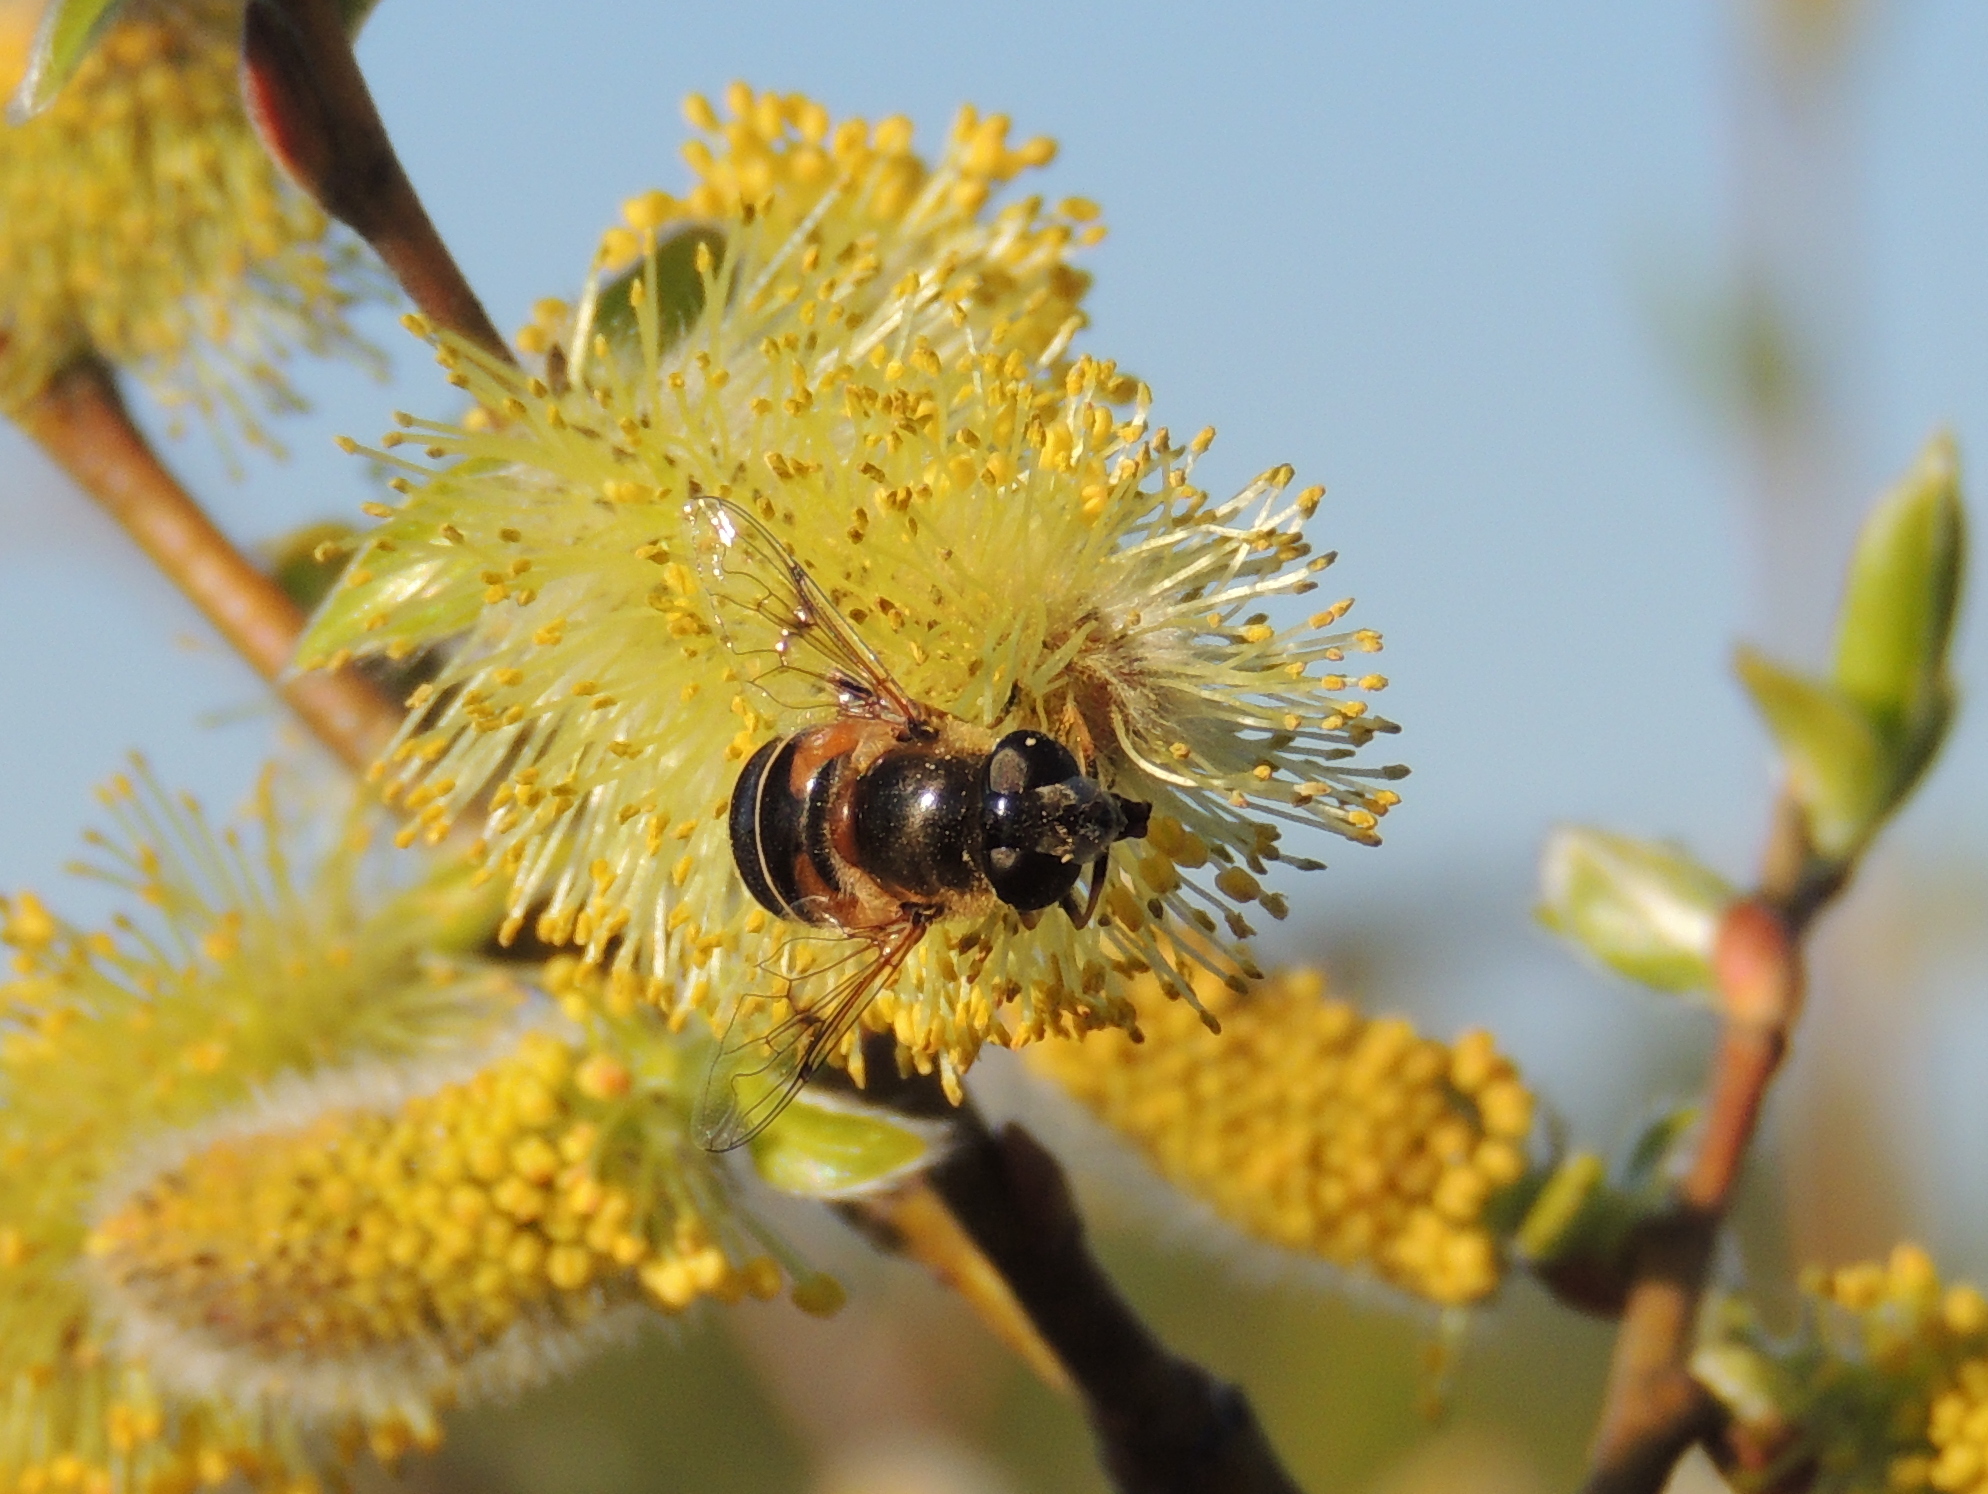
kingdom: Animalia
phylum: Arthropoda
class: Insecta
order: Diptera
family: Syrphidae
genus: Eristalis
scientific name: Eristalis obscura
